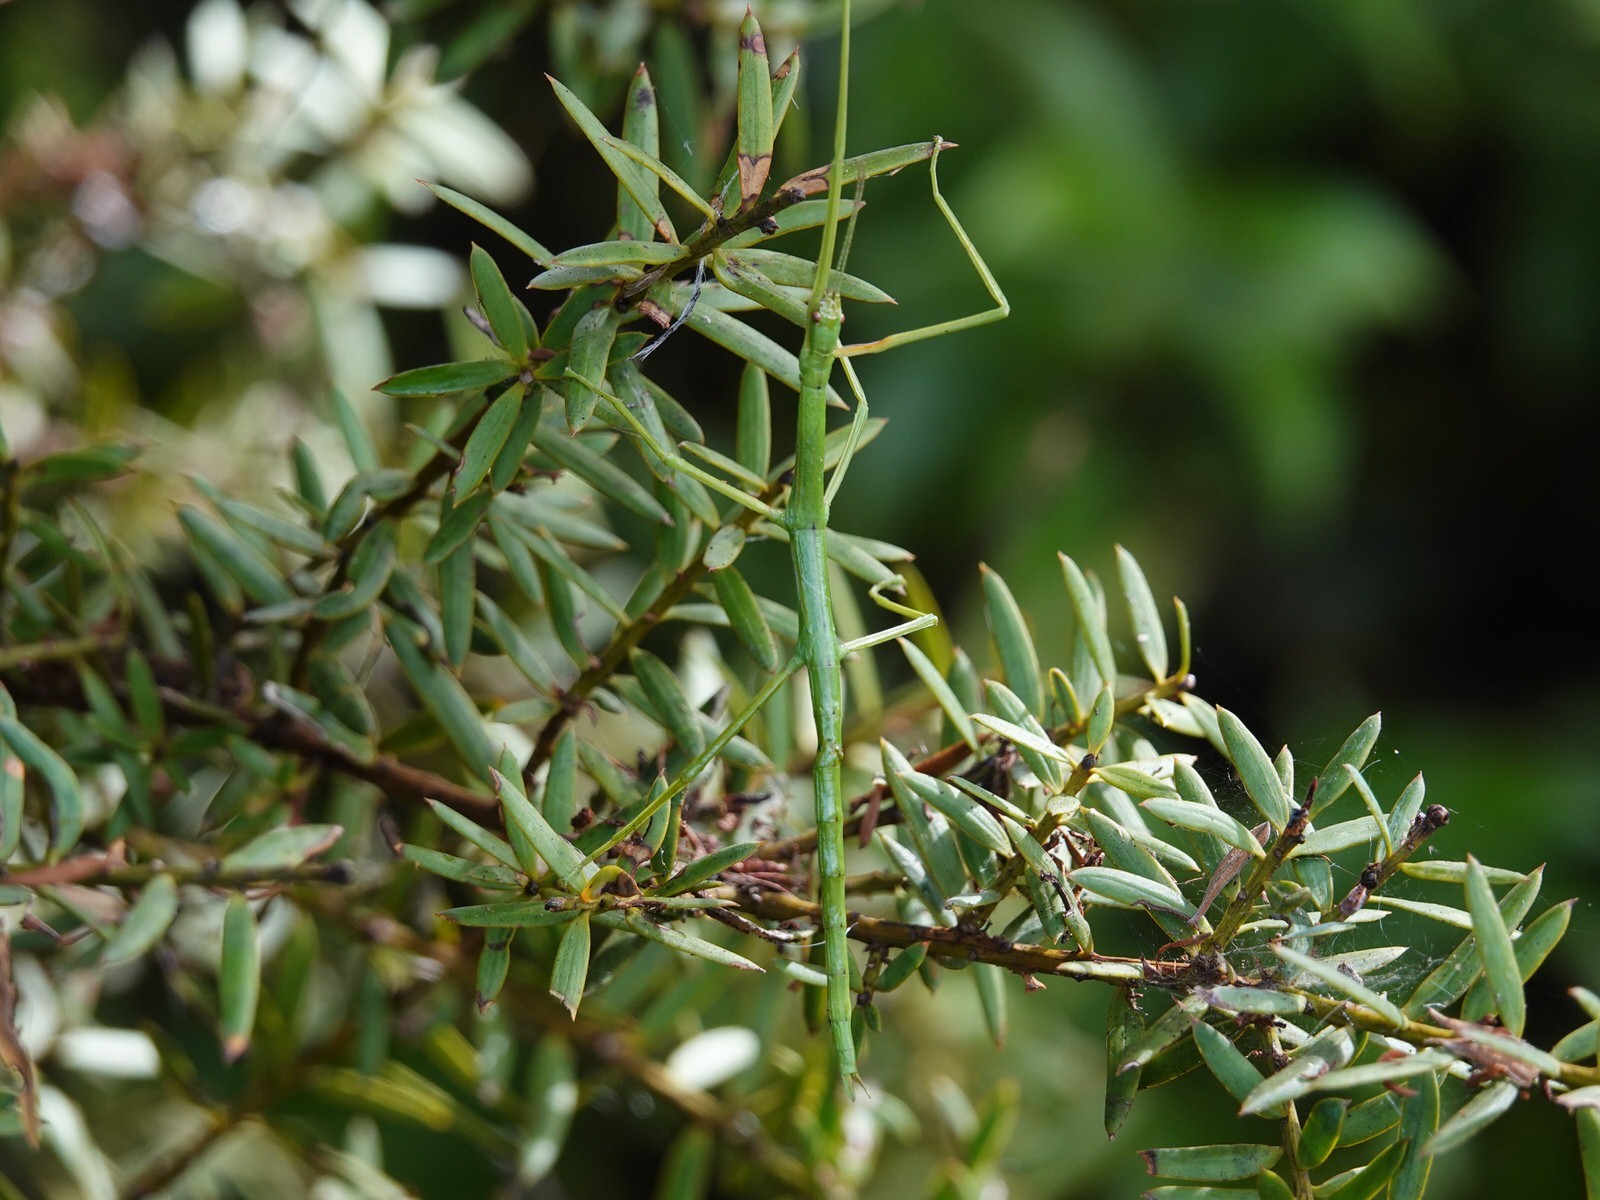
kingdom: Animalia
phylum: Arthropoda
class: Insecta
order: Phasmida
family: Phasmatidae
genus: Clitarchus
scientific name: Clitarchus hookeri
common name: Smooth stick insect
